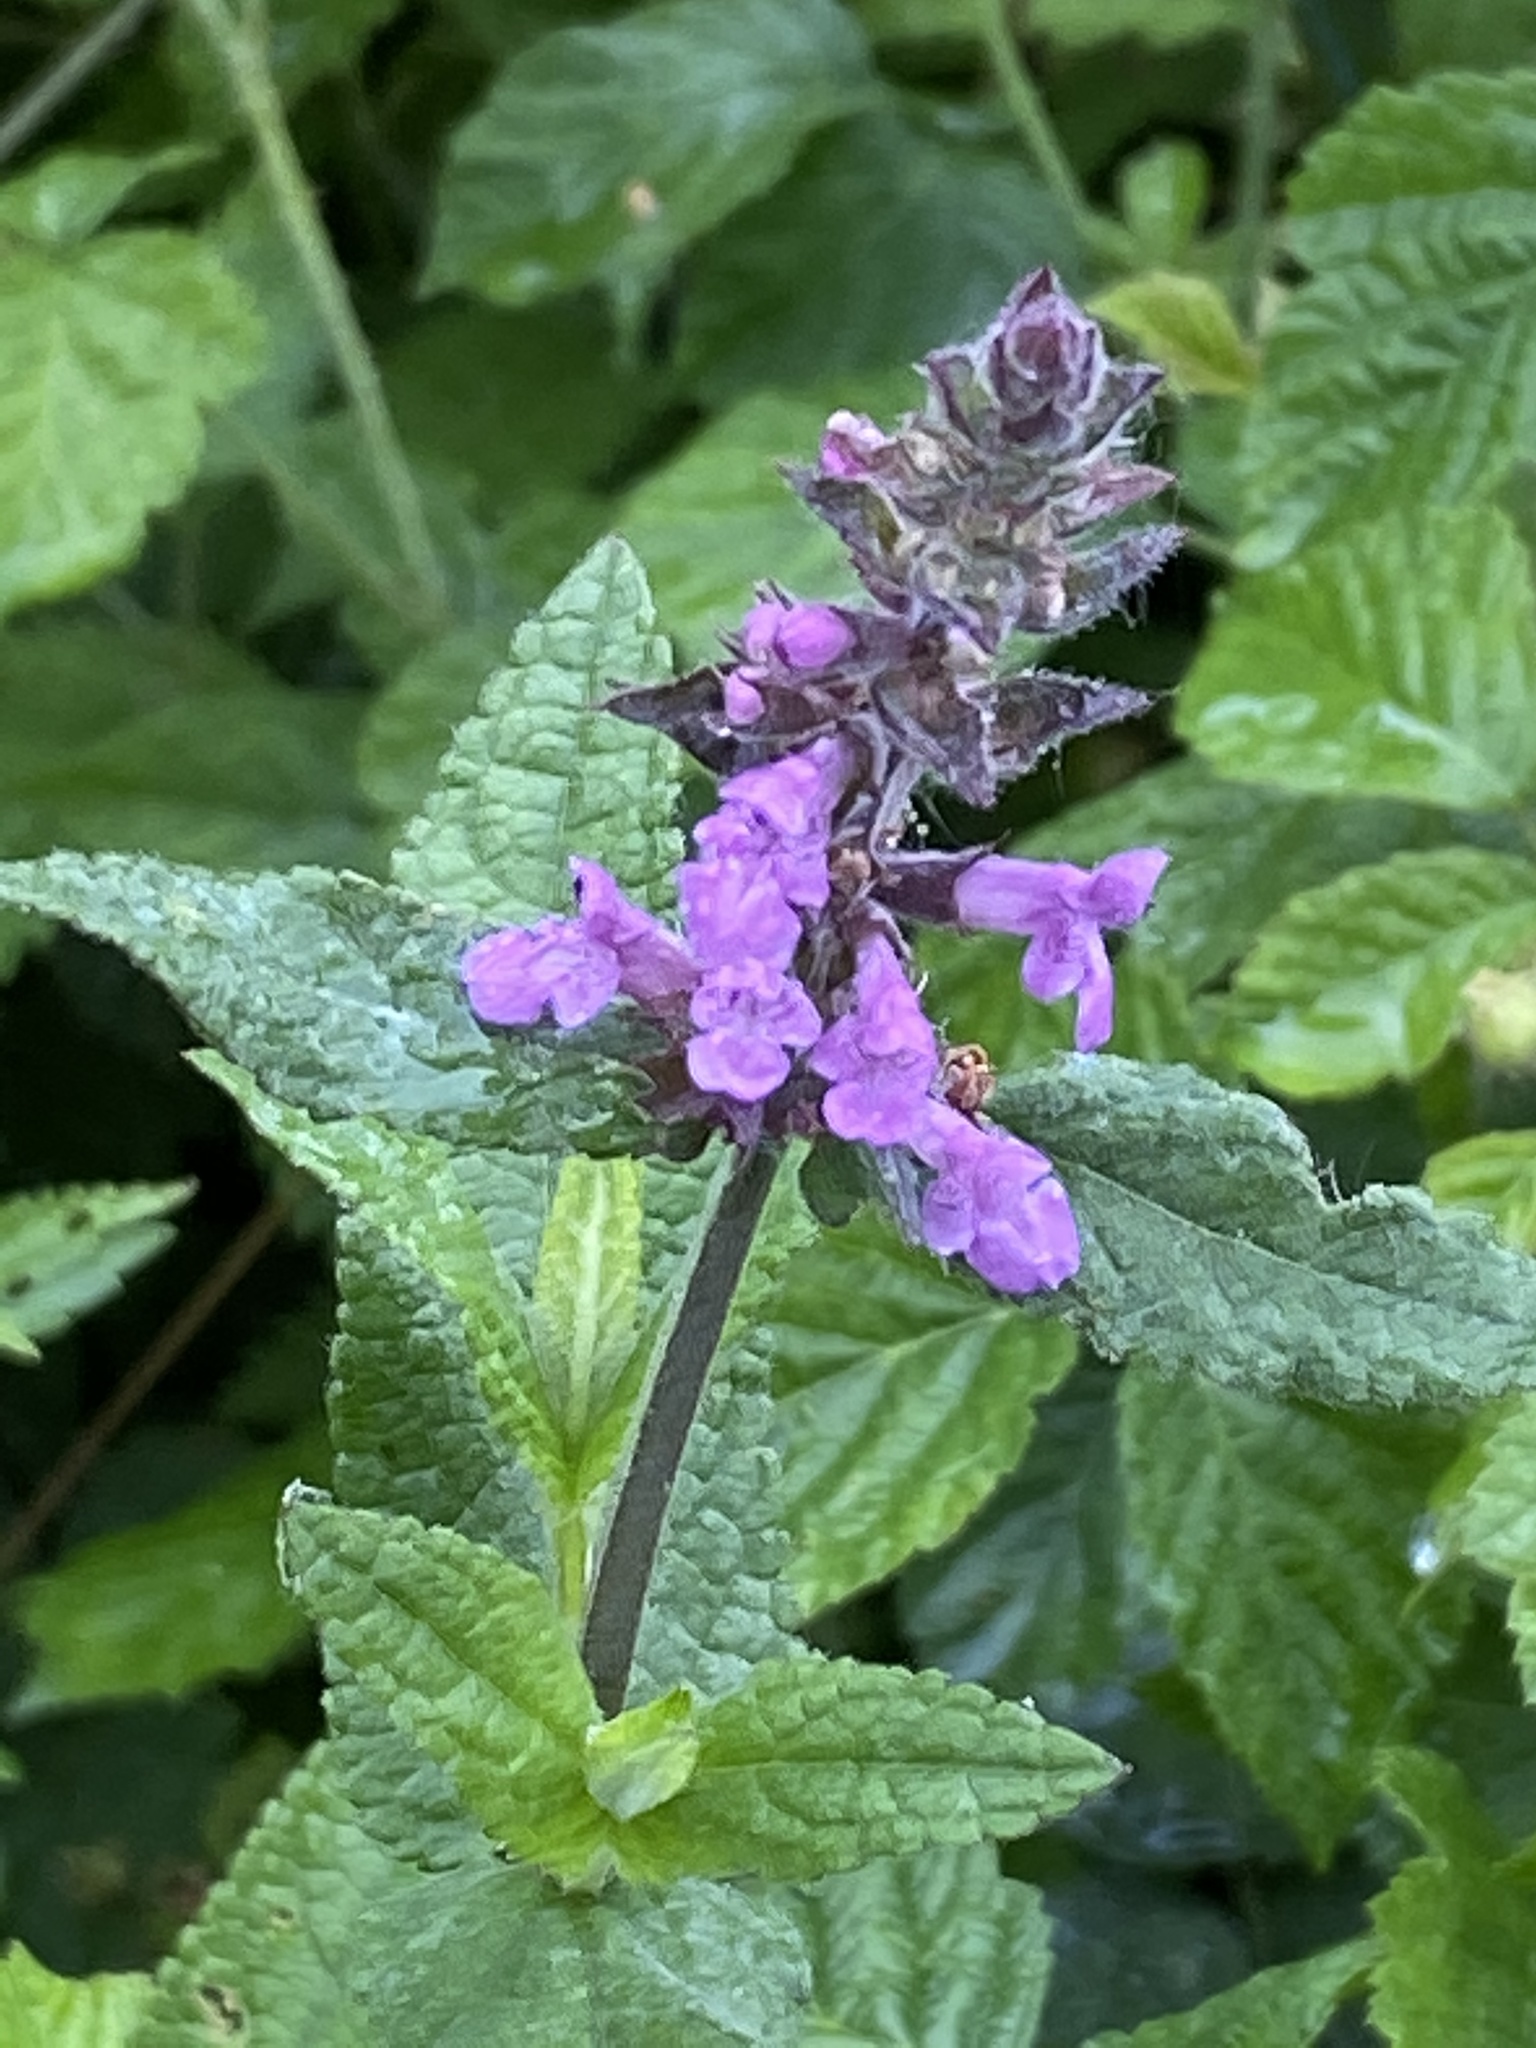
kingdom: Plantae
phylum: Tracheophyta
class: Magnoliopsida
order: Lamiales
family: Lamiaceae
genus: Stachys
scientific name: Stachys palustris
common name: Marsh woundwort
